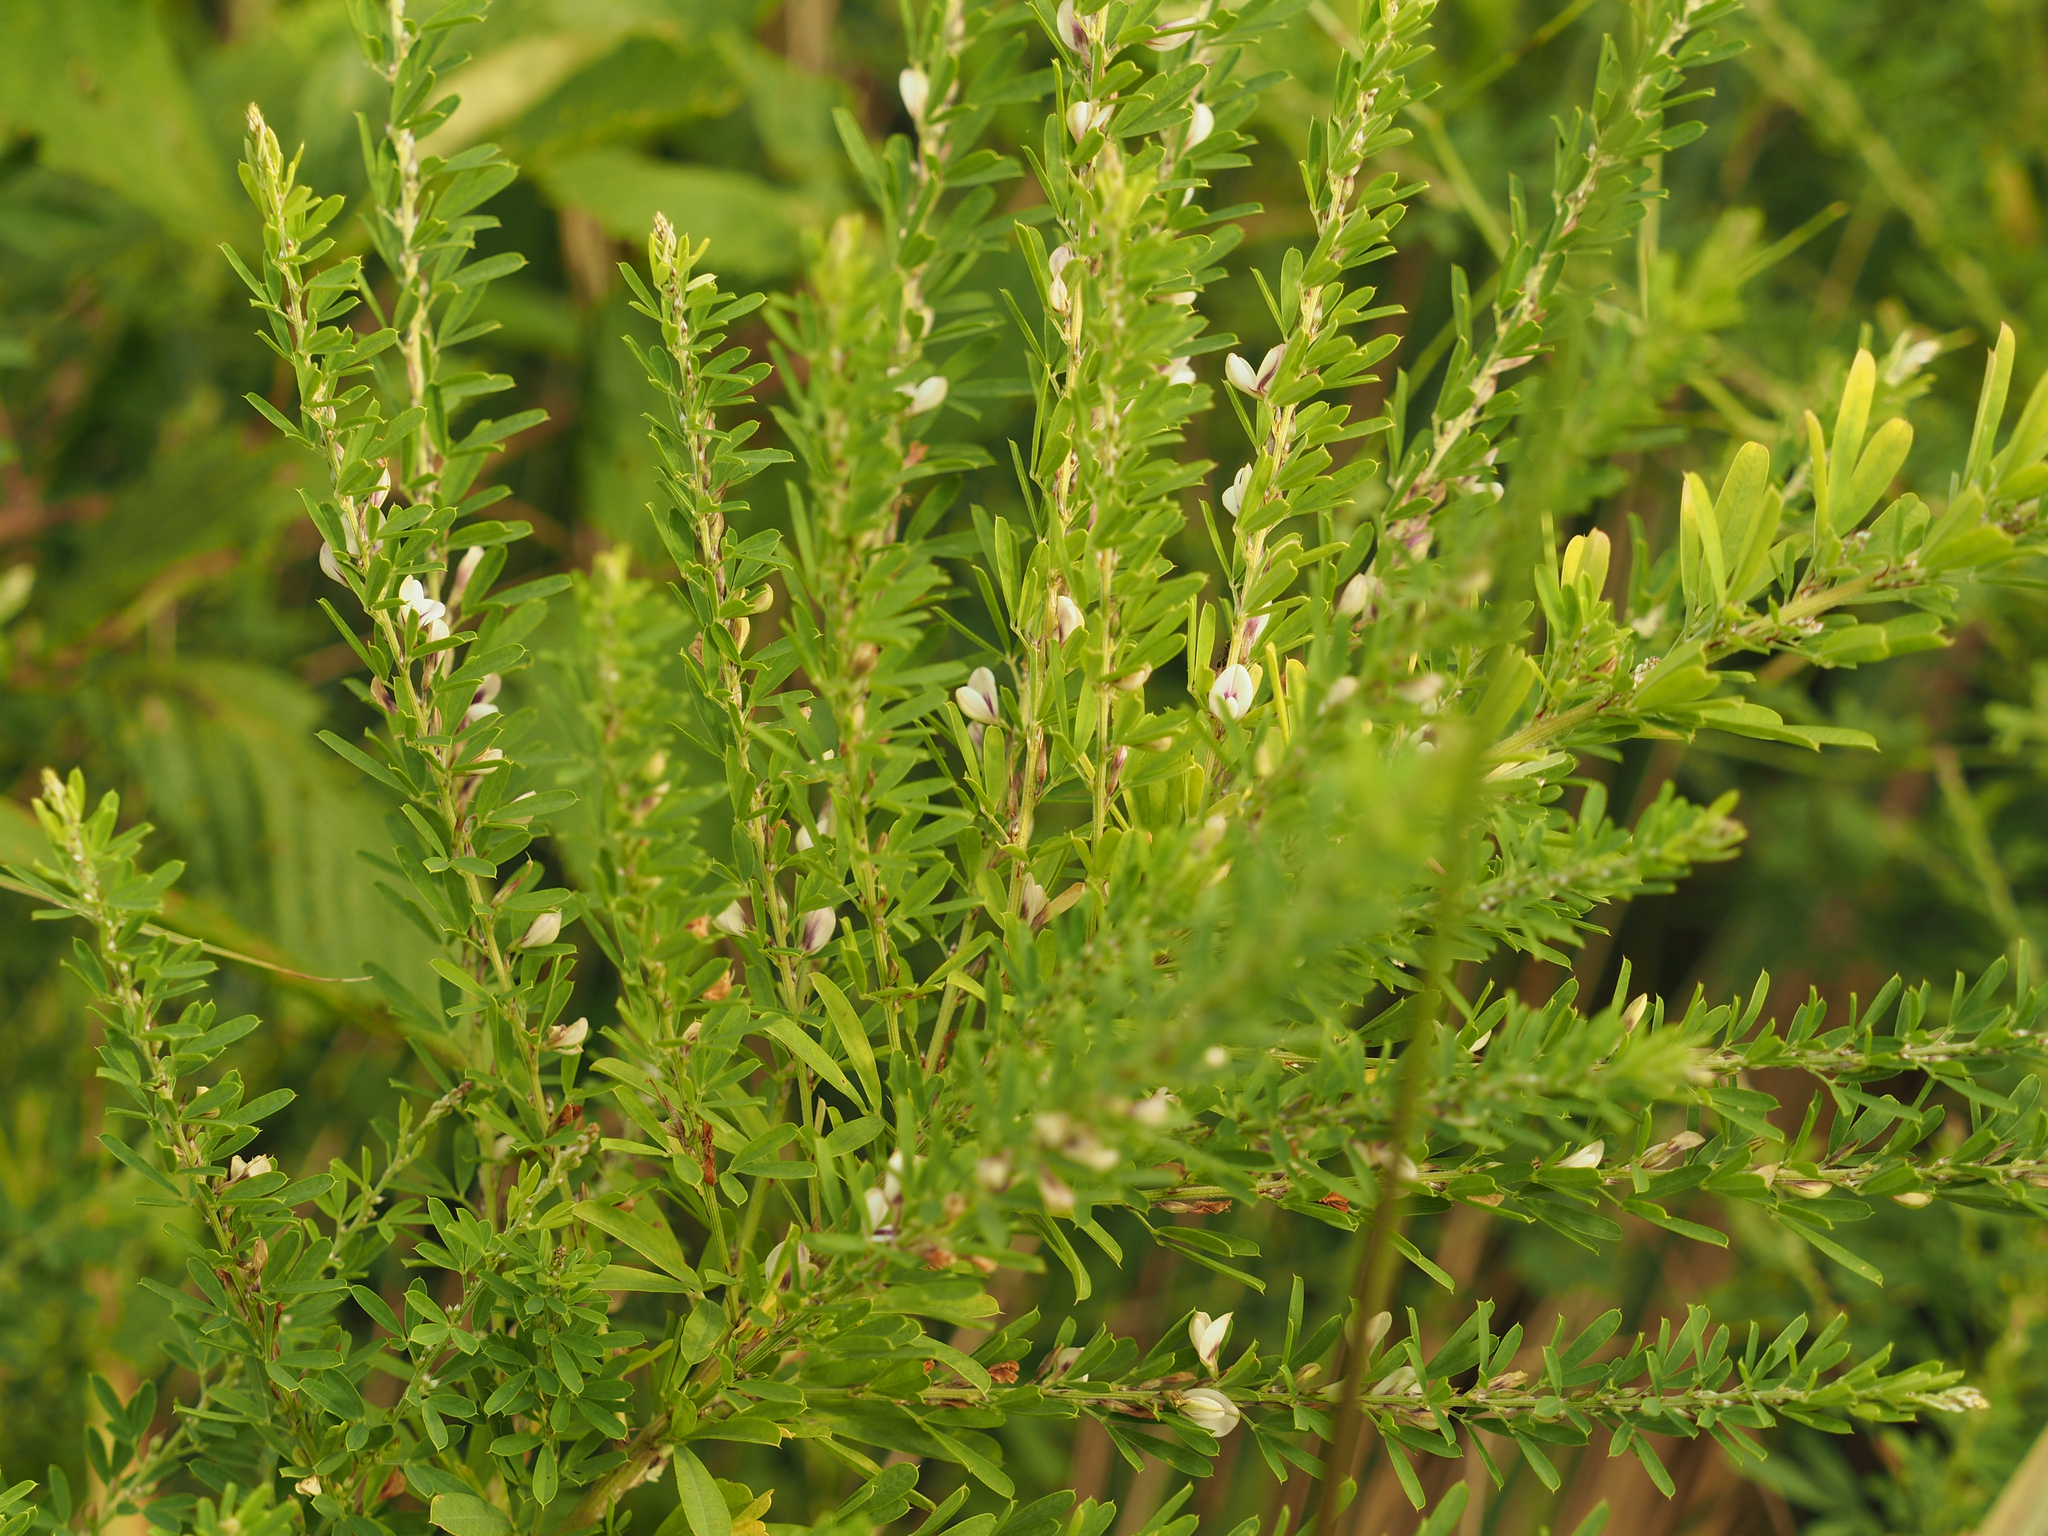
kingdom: Plantae
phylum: Tracheophyta
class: Magnoliopsida
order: Fabales
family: Fabaceae
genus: Lespedeza
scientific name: Lespedeza cuneata
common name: Chinese bush-clover
